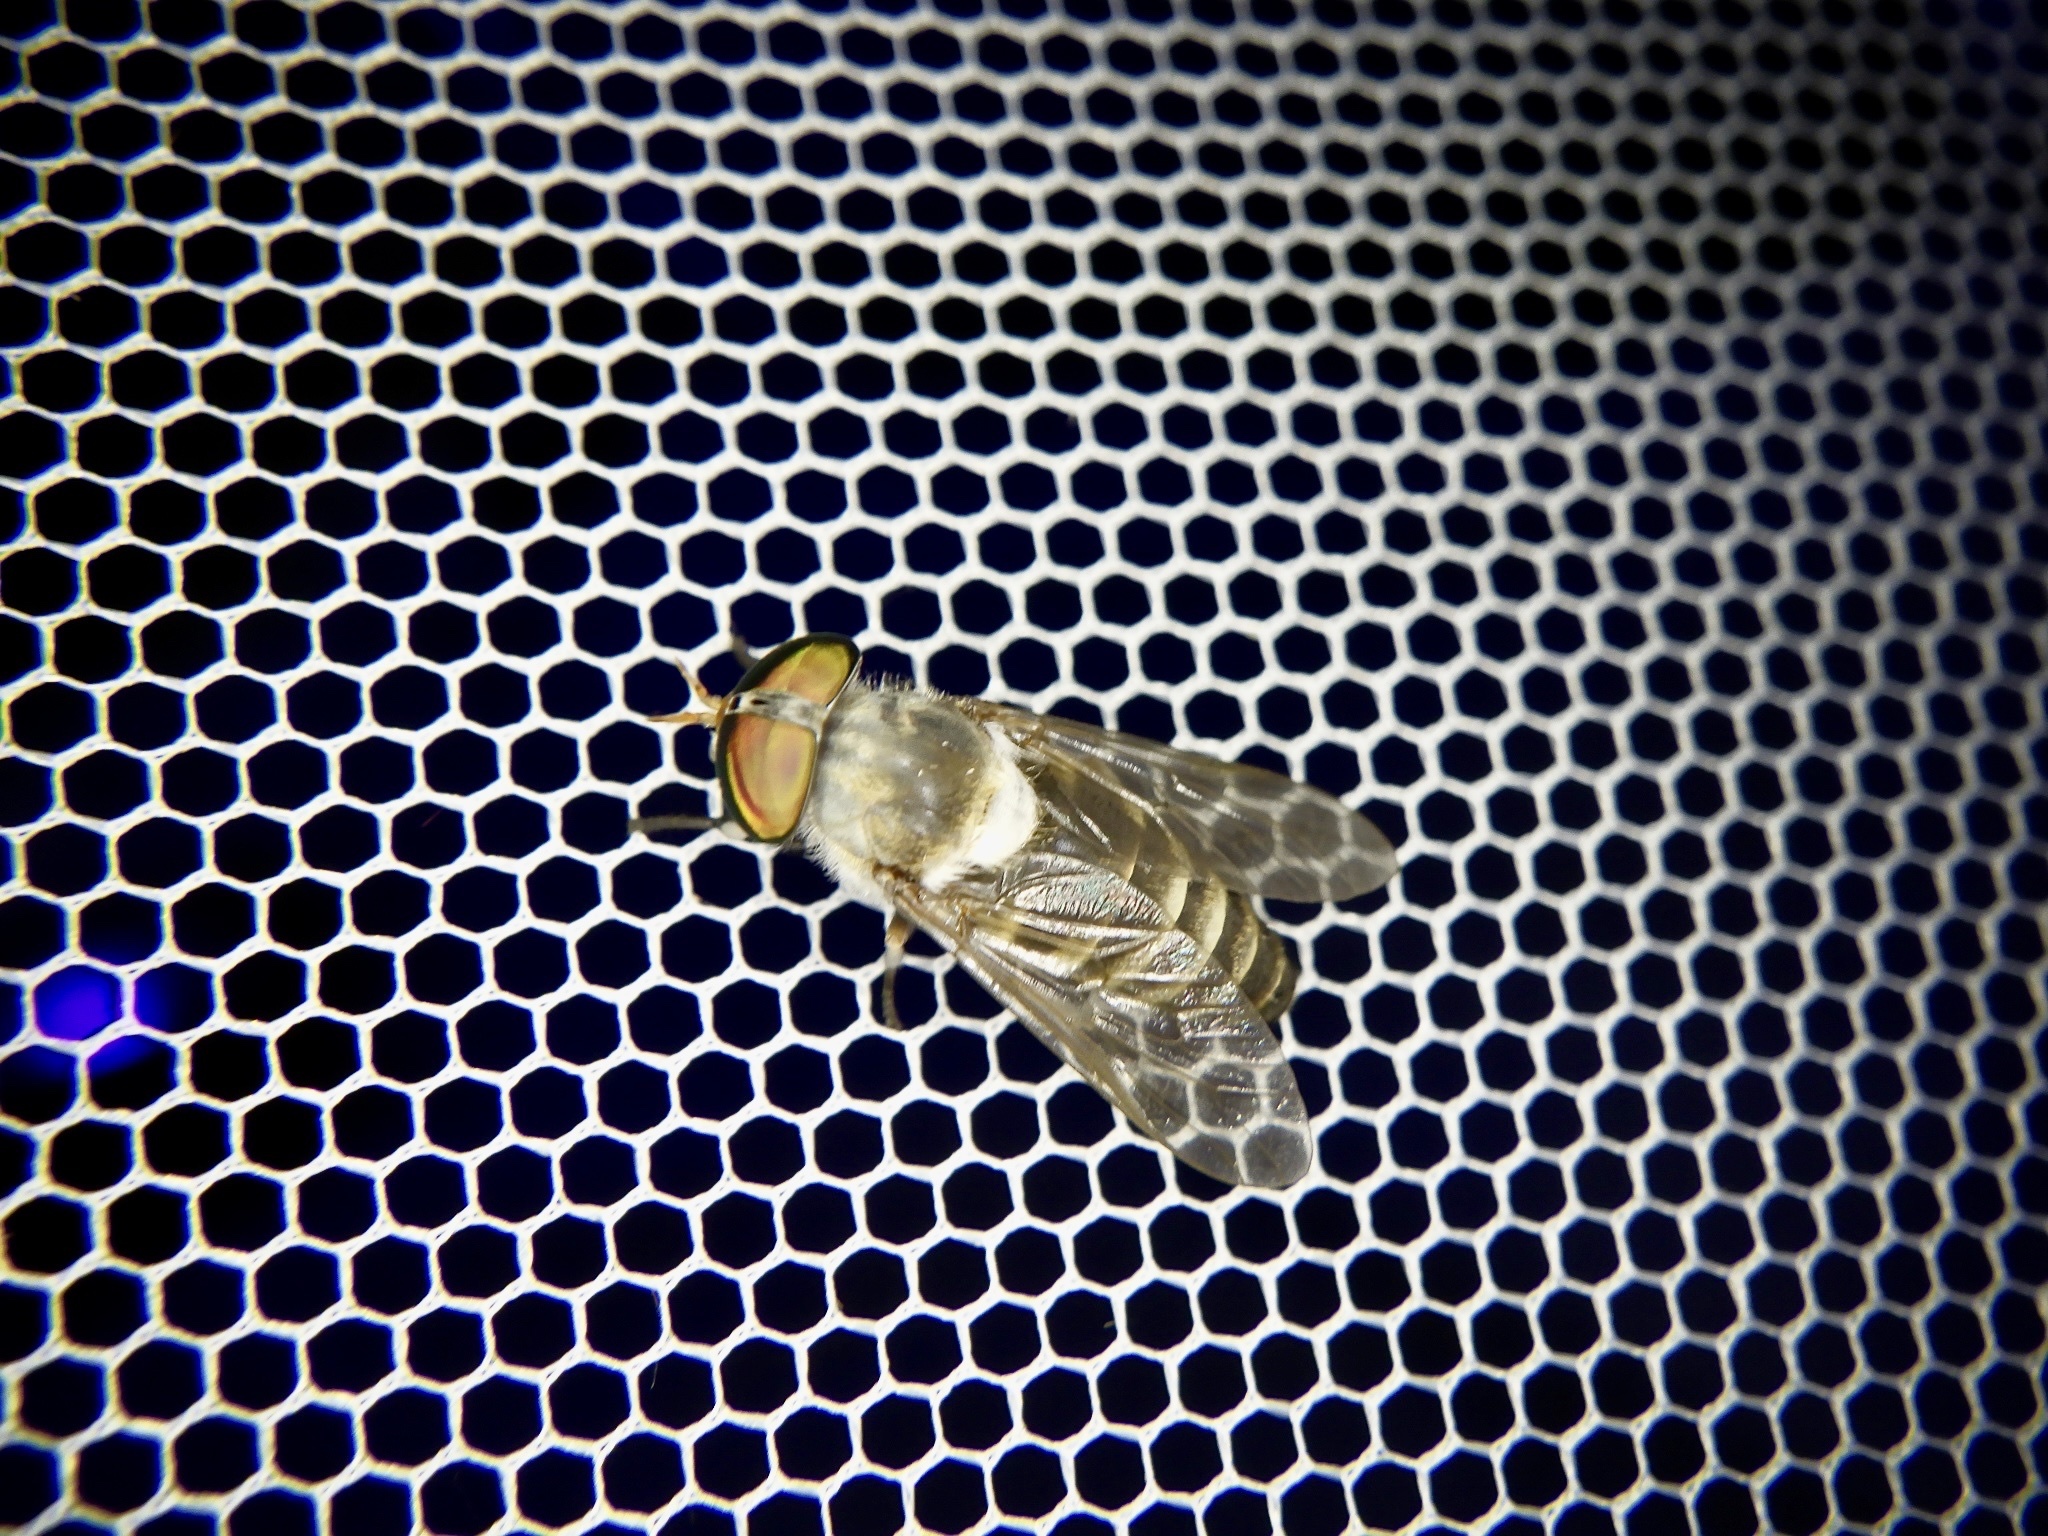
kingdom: Animalia
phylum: Arthropoda
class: Insecta
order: Diptera
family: Tabanidae
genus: Tabanus
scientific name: Tabanus iyoensis
